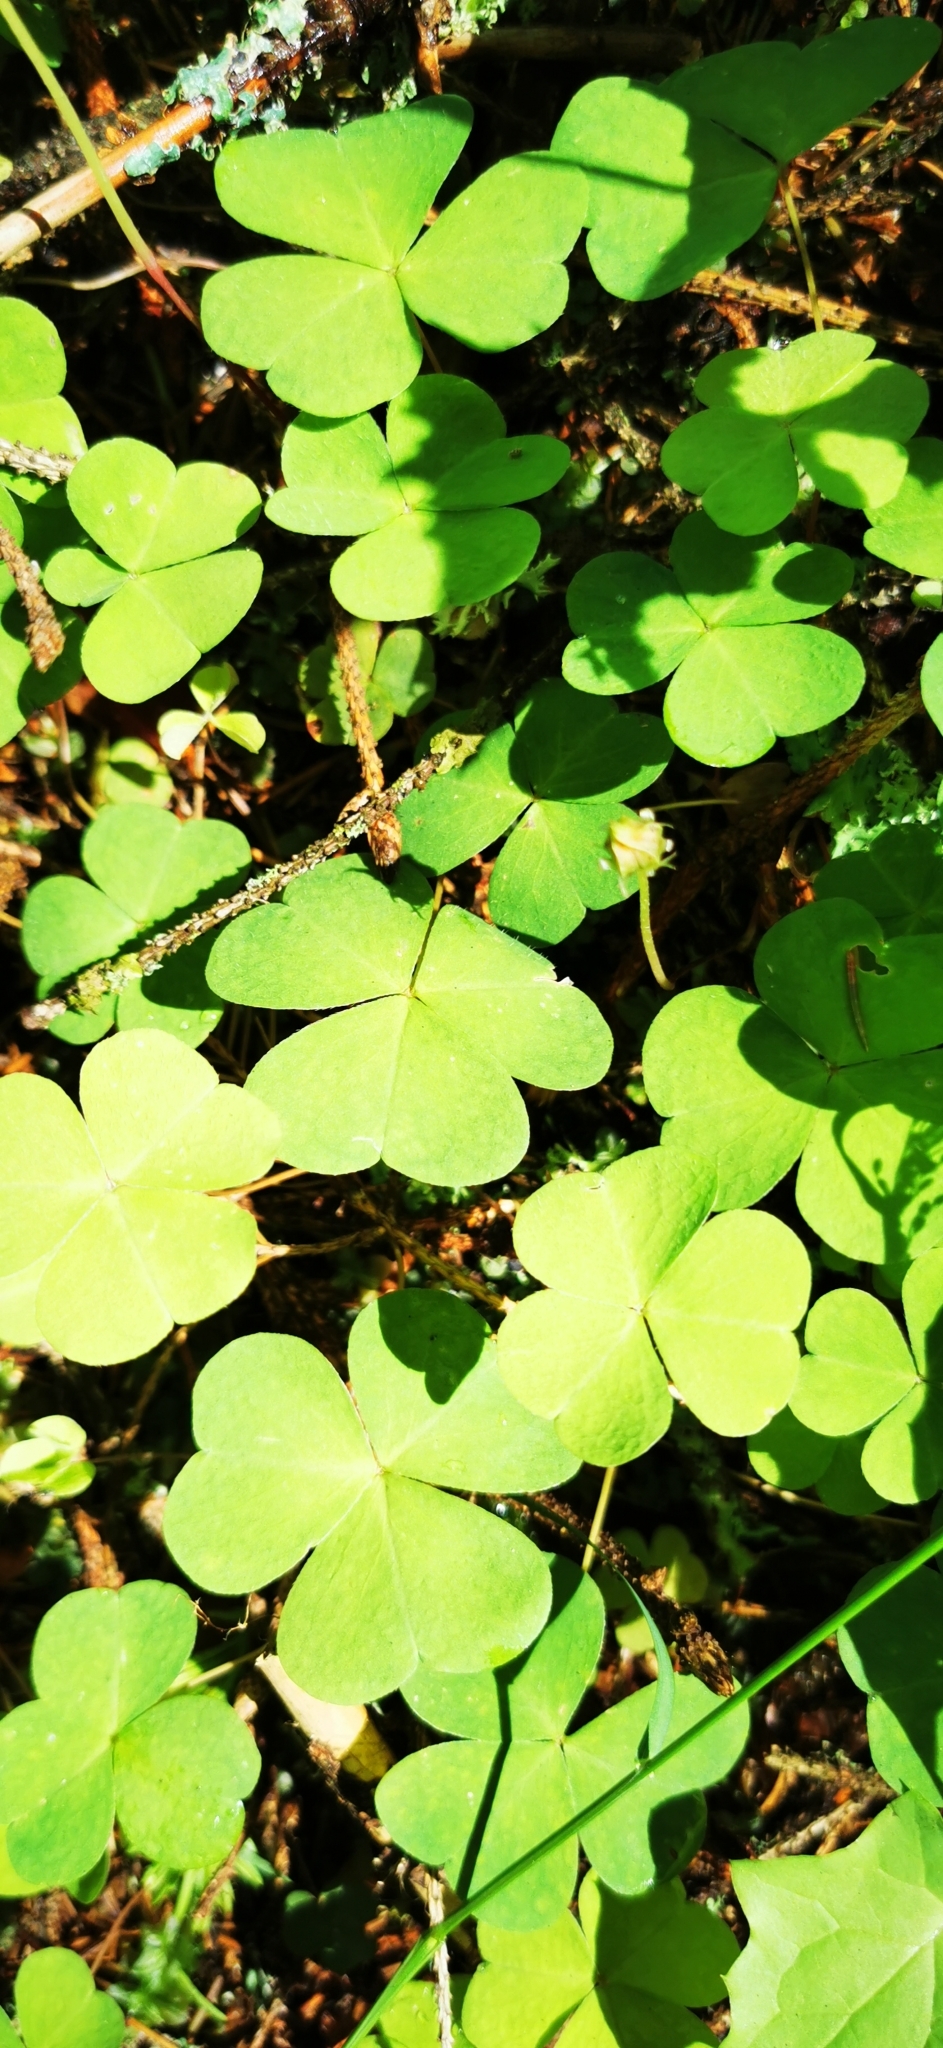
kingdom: Plantae
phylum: Tracheophyta
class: Magnoliopsida
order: Oxalidales
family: Oxalidaceae
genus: Oxalis
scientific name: Oxalis acetosella
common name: Wood-sorrel
